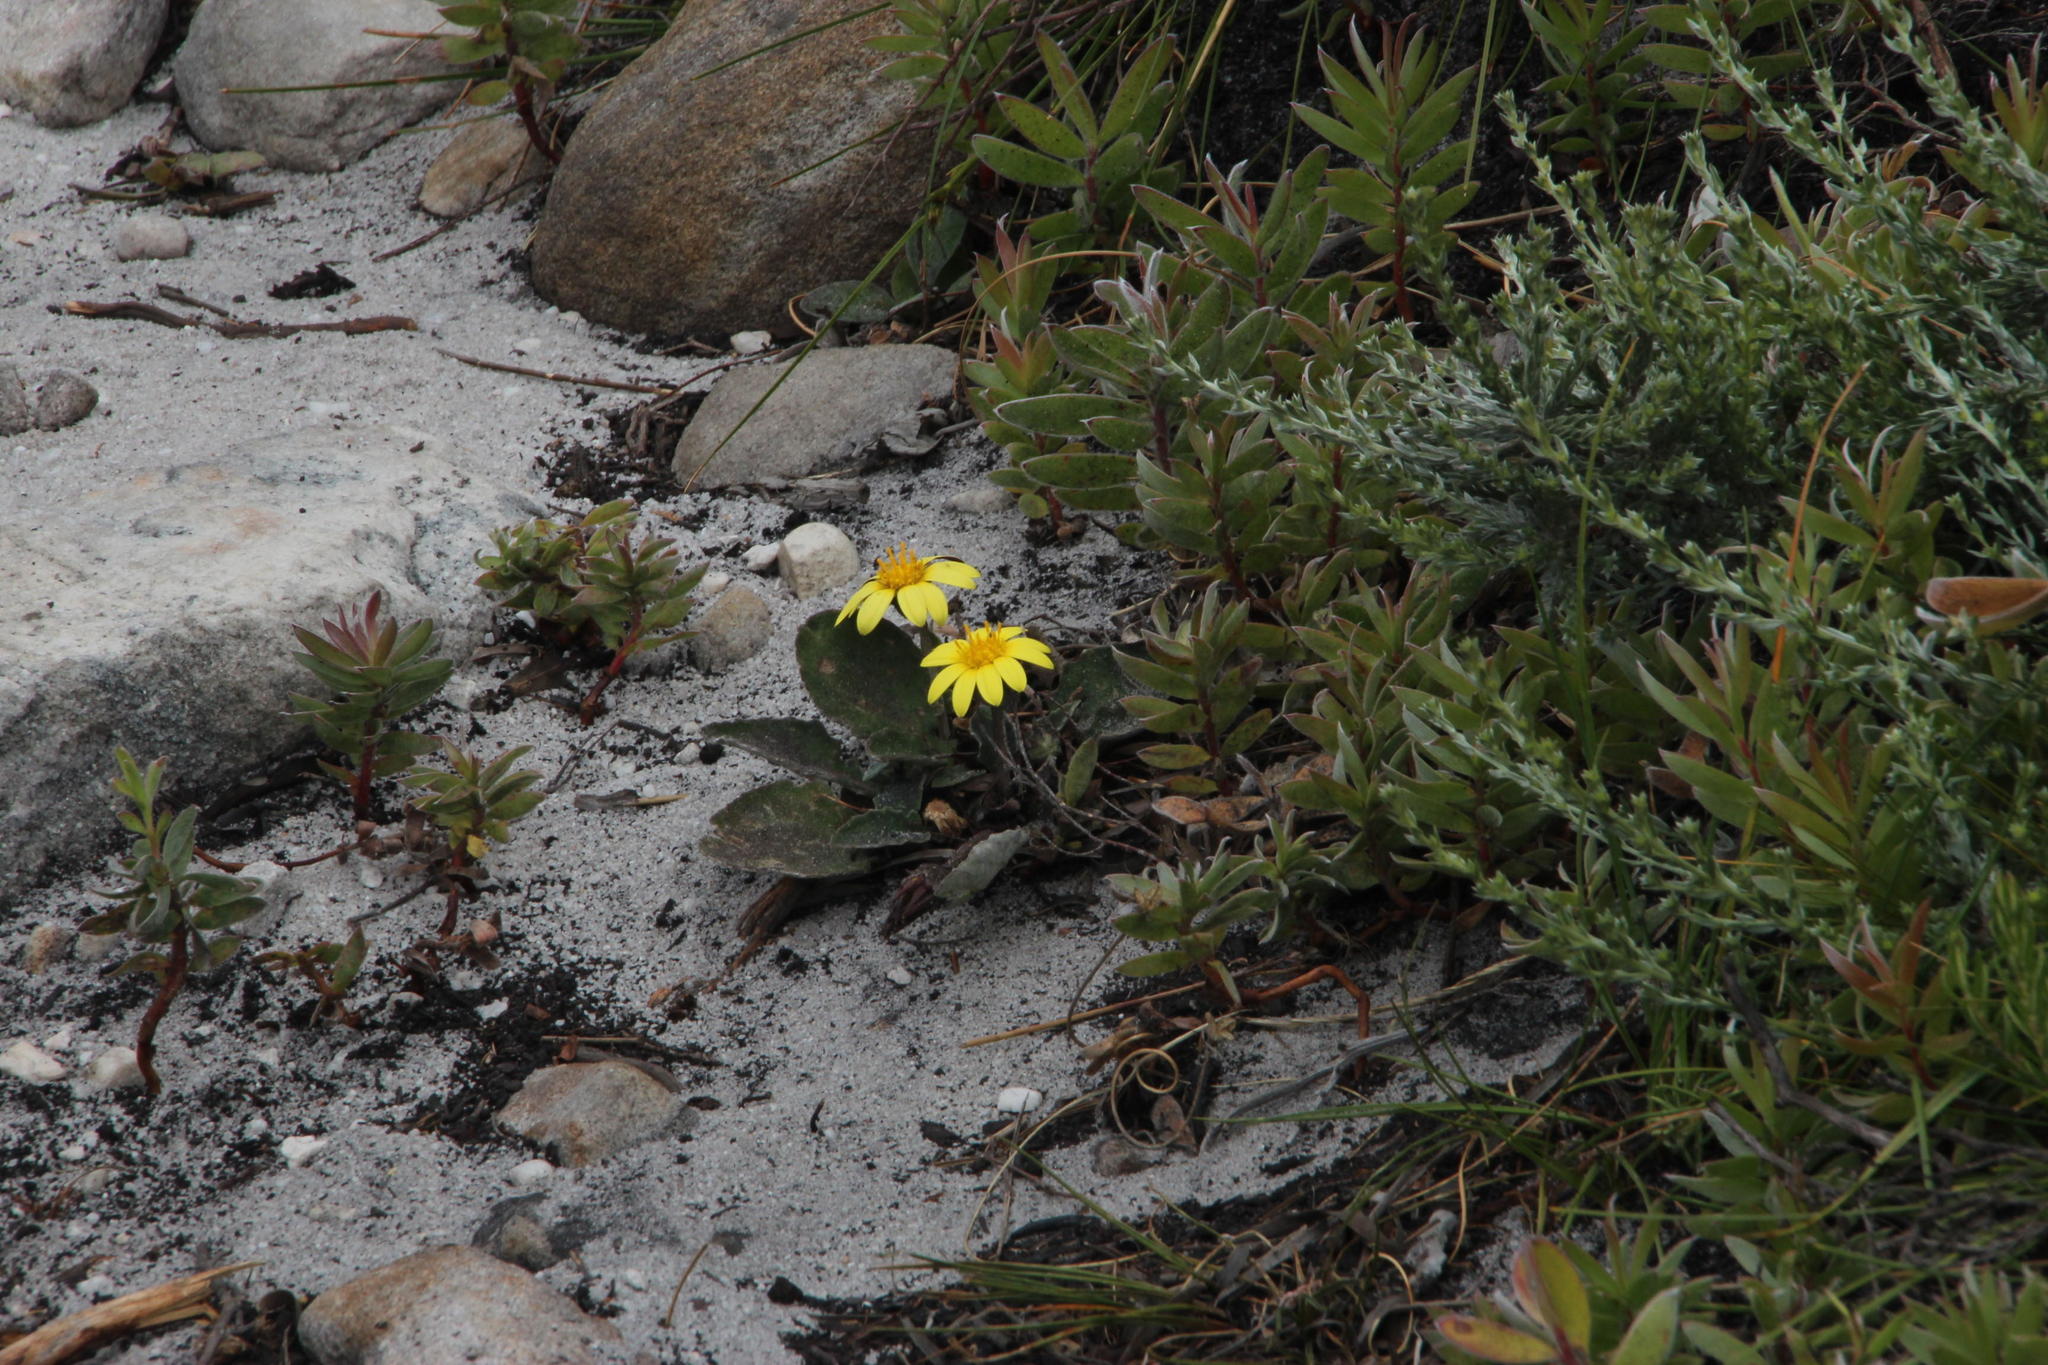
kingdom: Plantae
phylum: Tracheophyta
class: Magnoliopsida
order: Asterales
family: Asteraceae
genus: Haplocarpha
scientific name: Haplocarpha lanata
